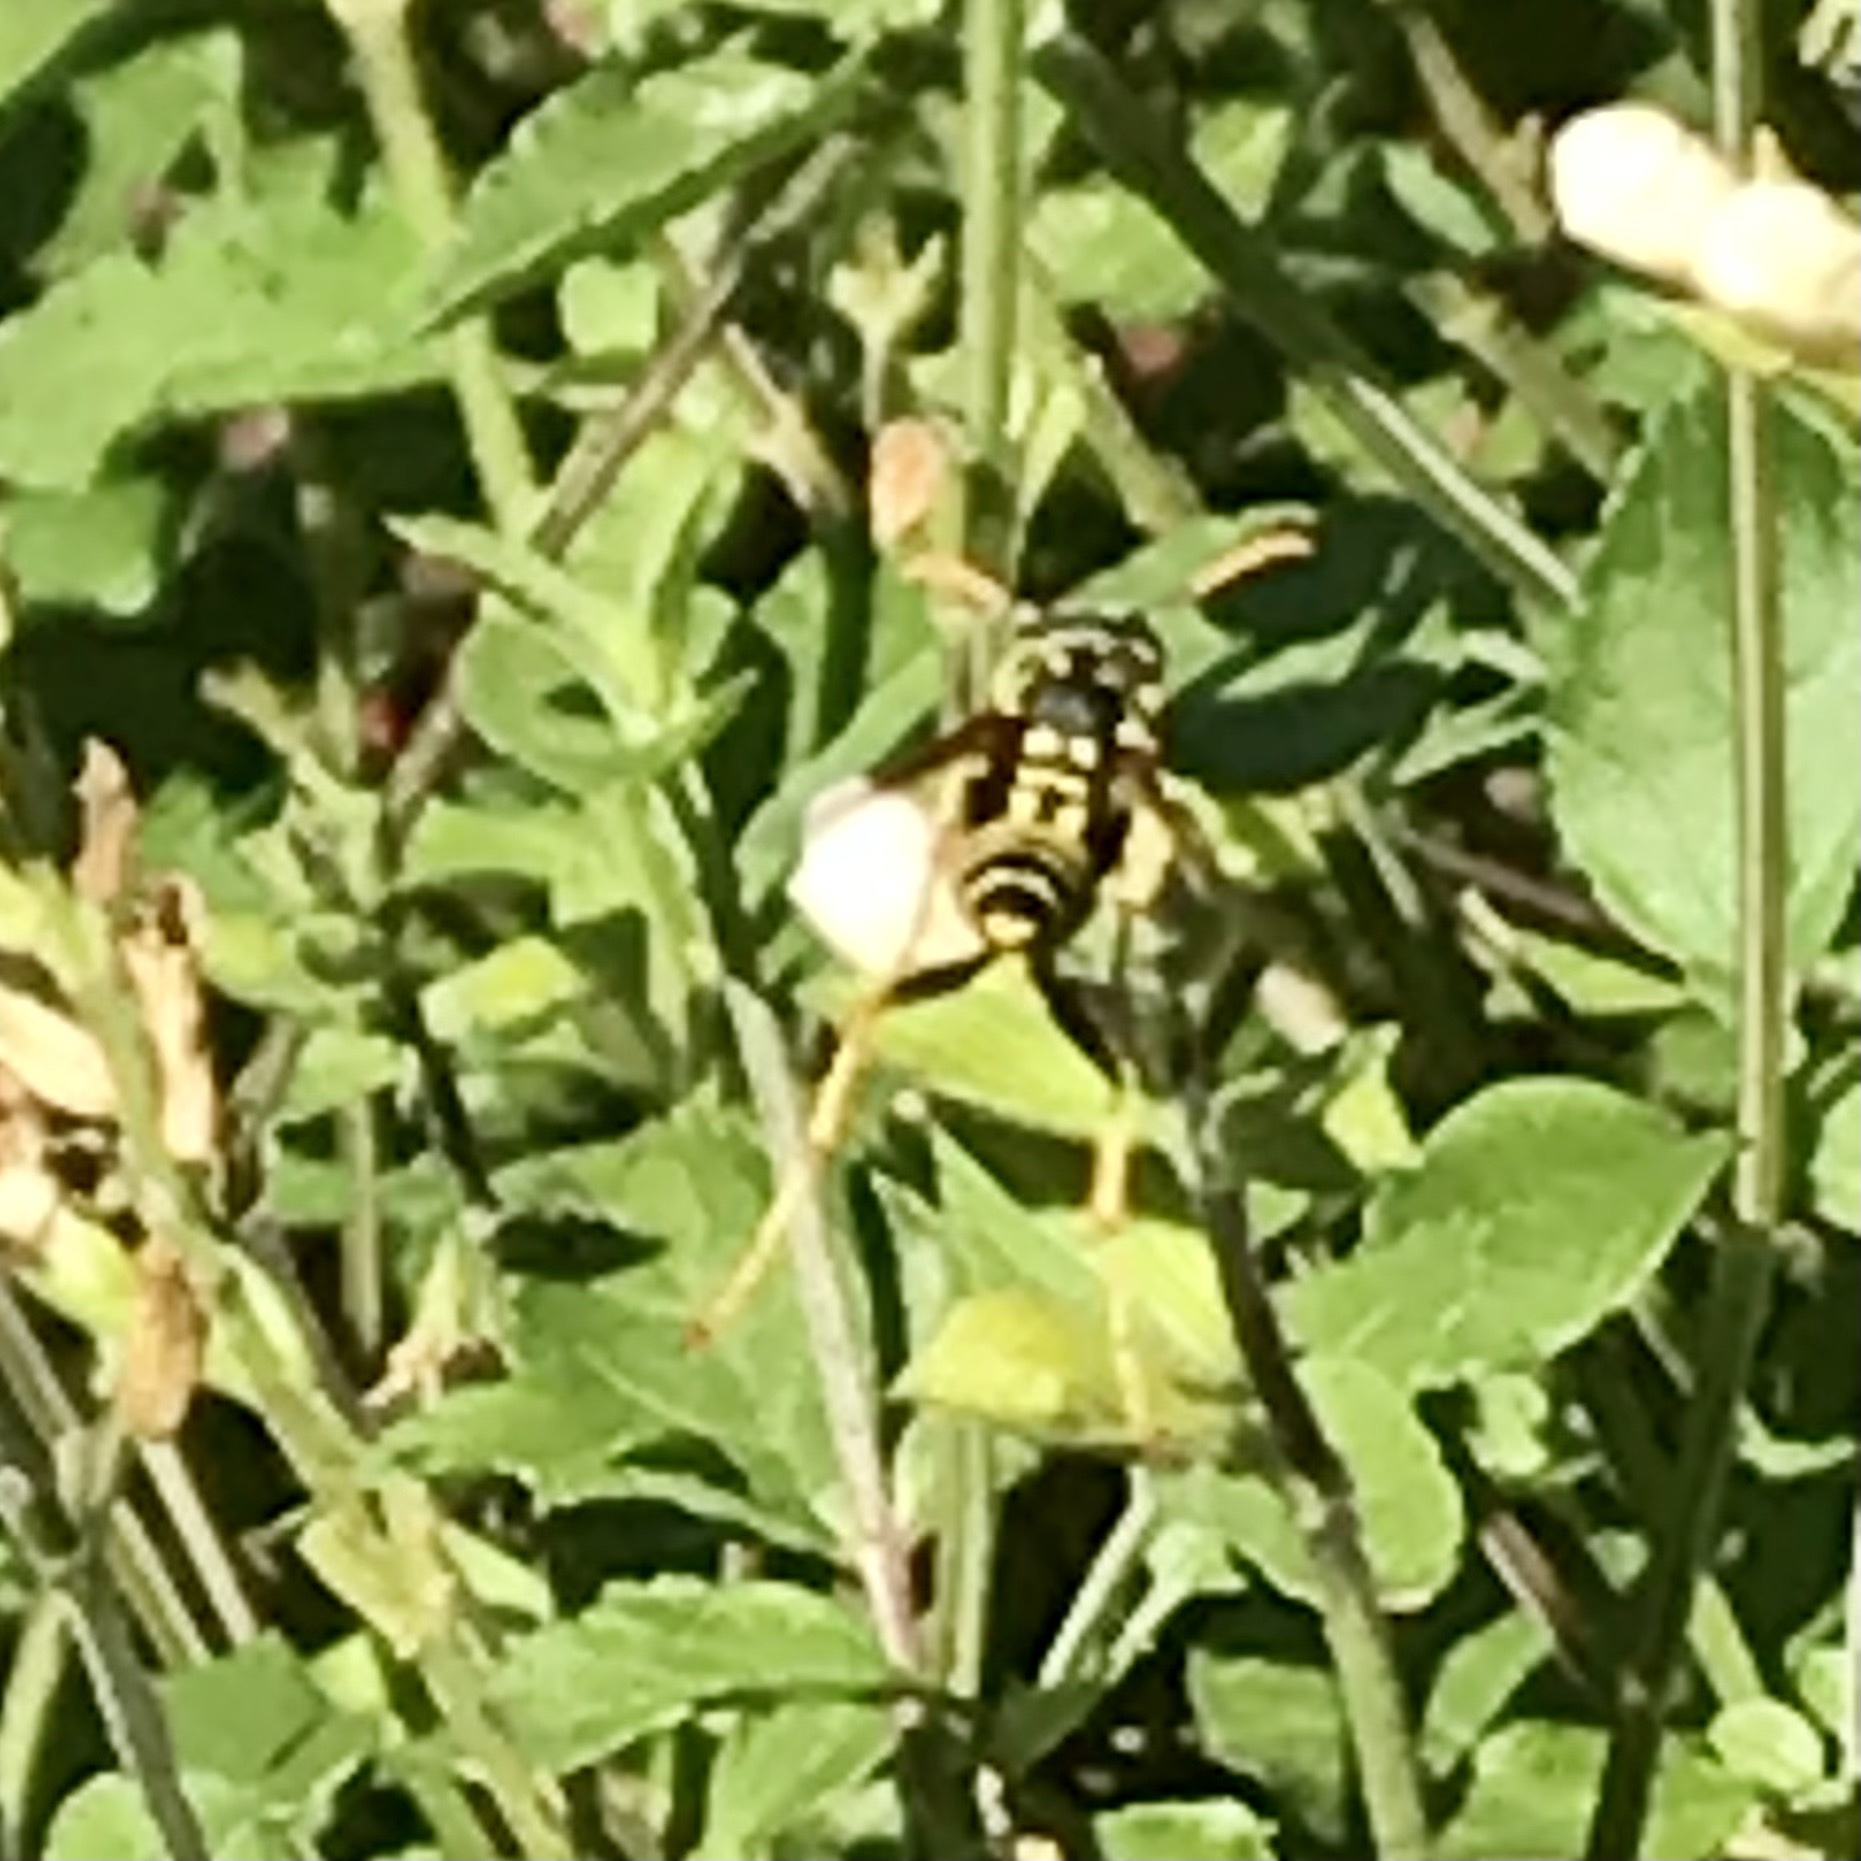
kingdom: Animalia
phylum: Arthropoda
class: Insecta
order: Hymenoptera
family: Eumenidae
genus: Polistes
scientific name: Polistes dominula
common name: Paper wasp
